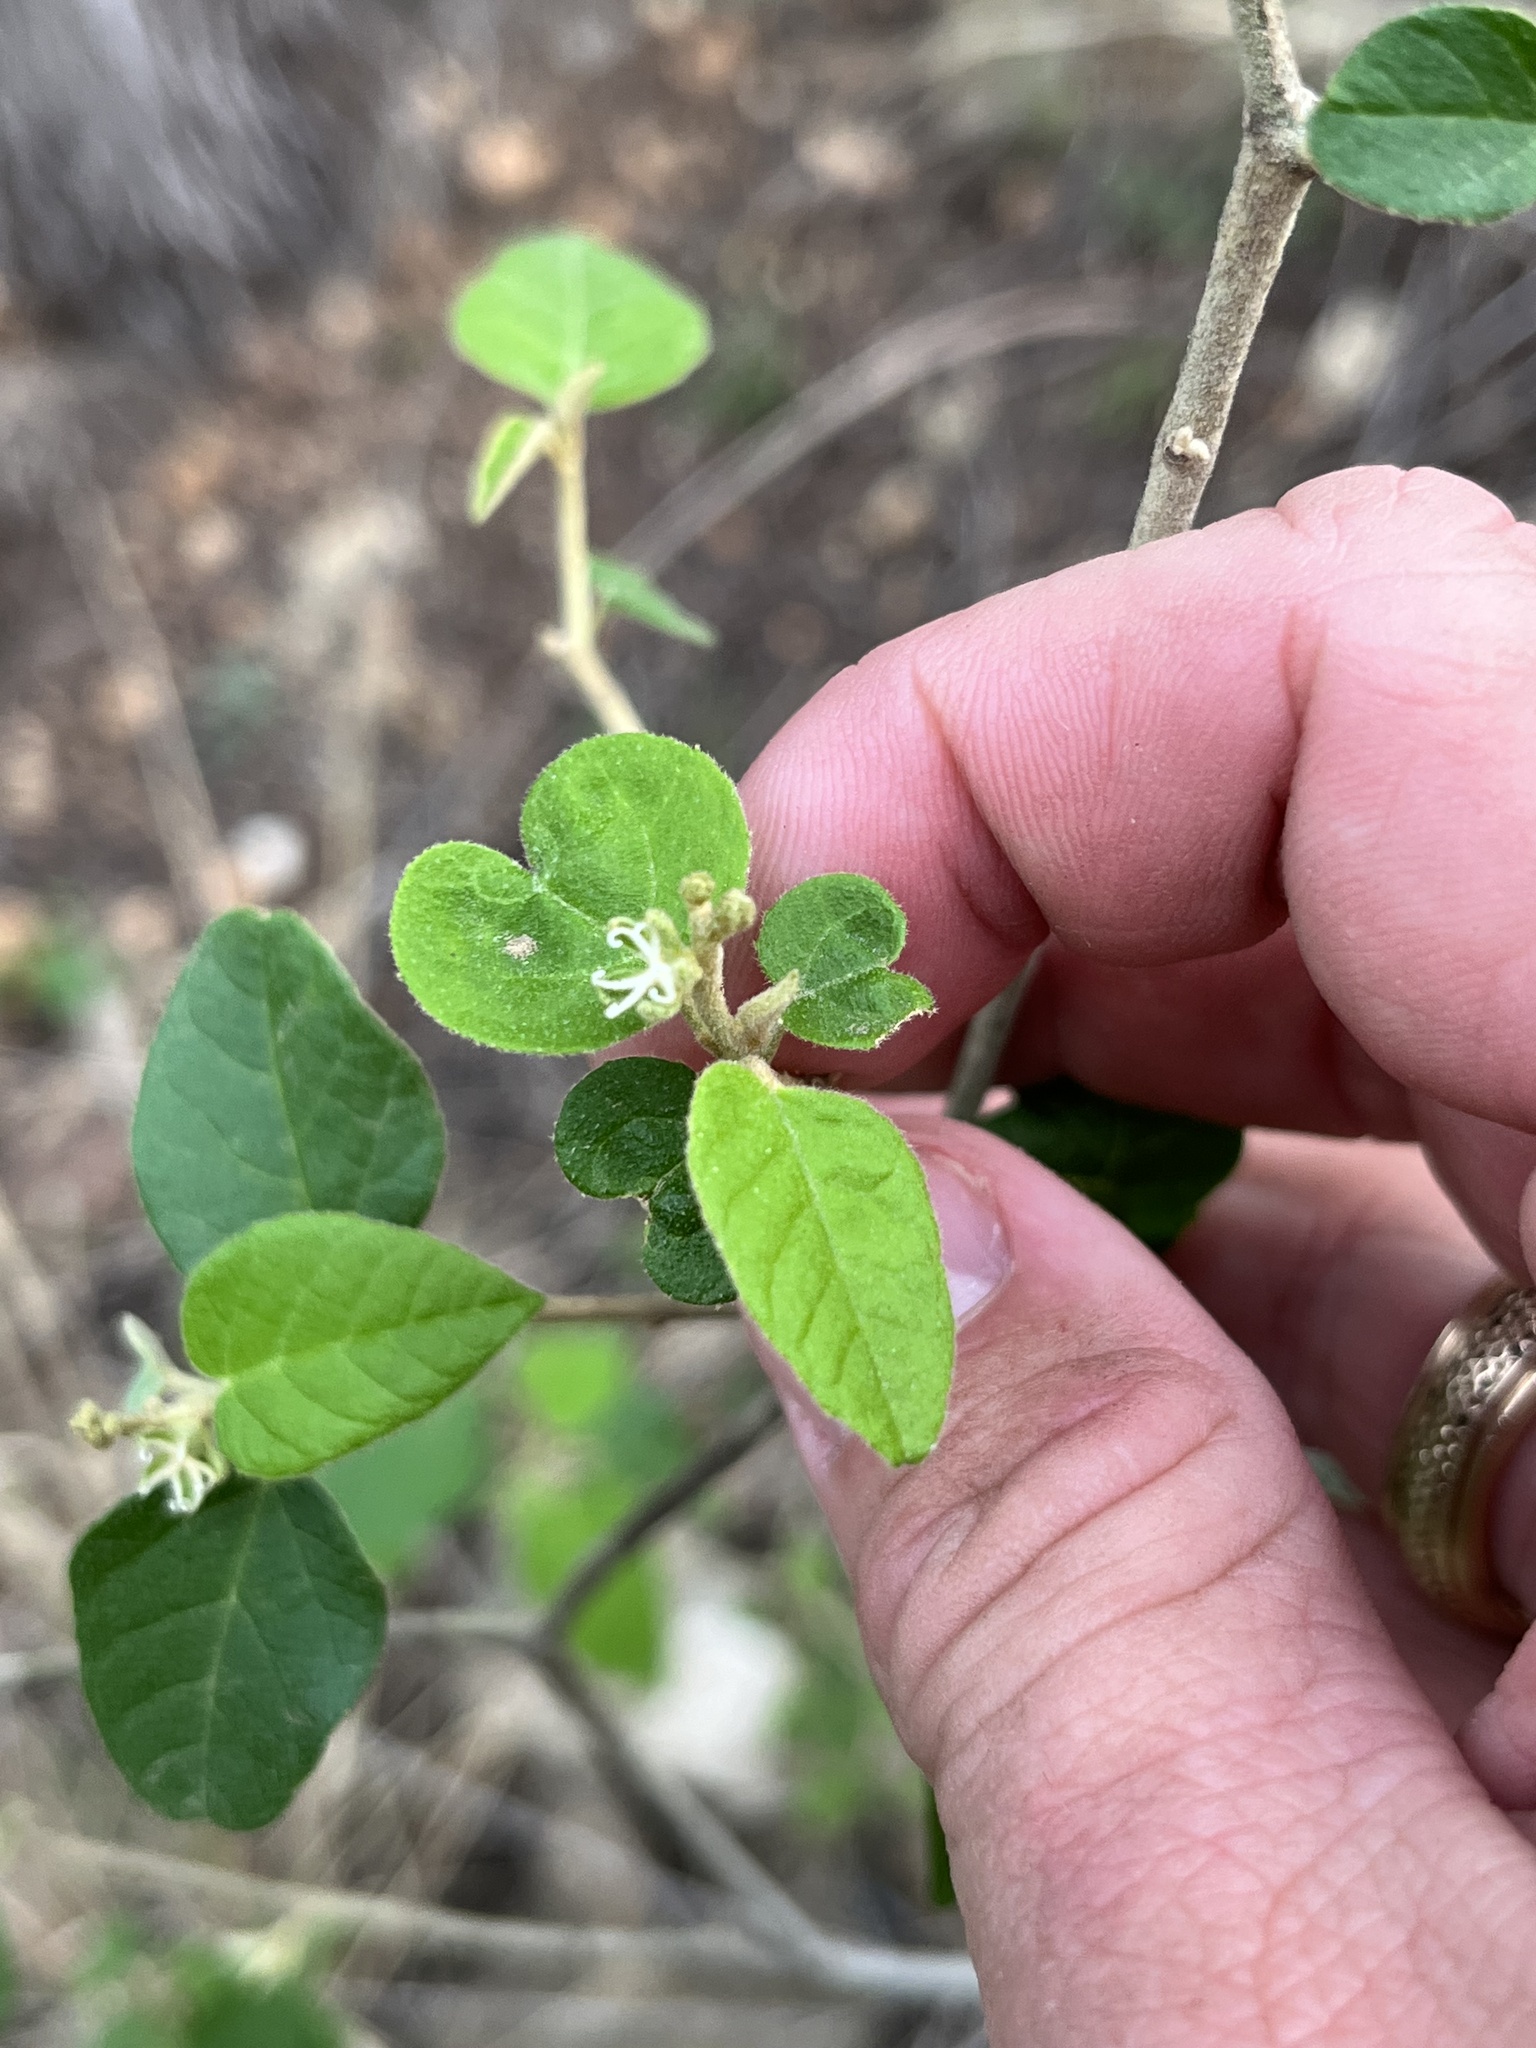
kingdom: Plantae
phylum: Tracheophyta
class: Magnoliopsida
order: Malpighiales
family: Euphorbiaceae
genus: Croton
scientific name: Croton fruticulosus
